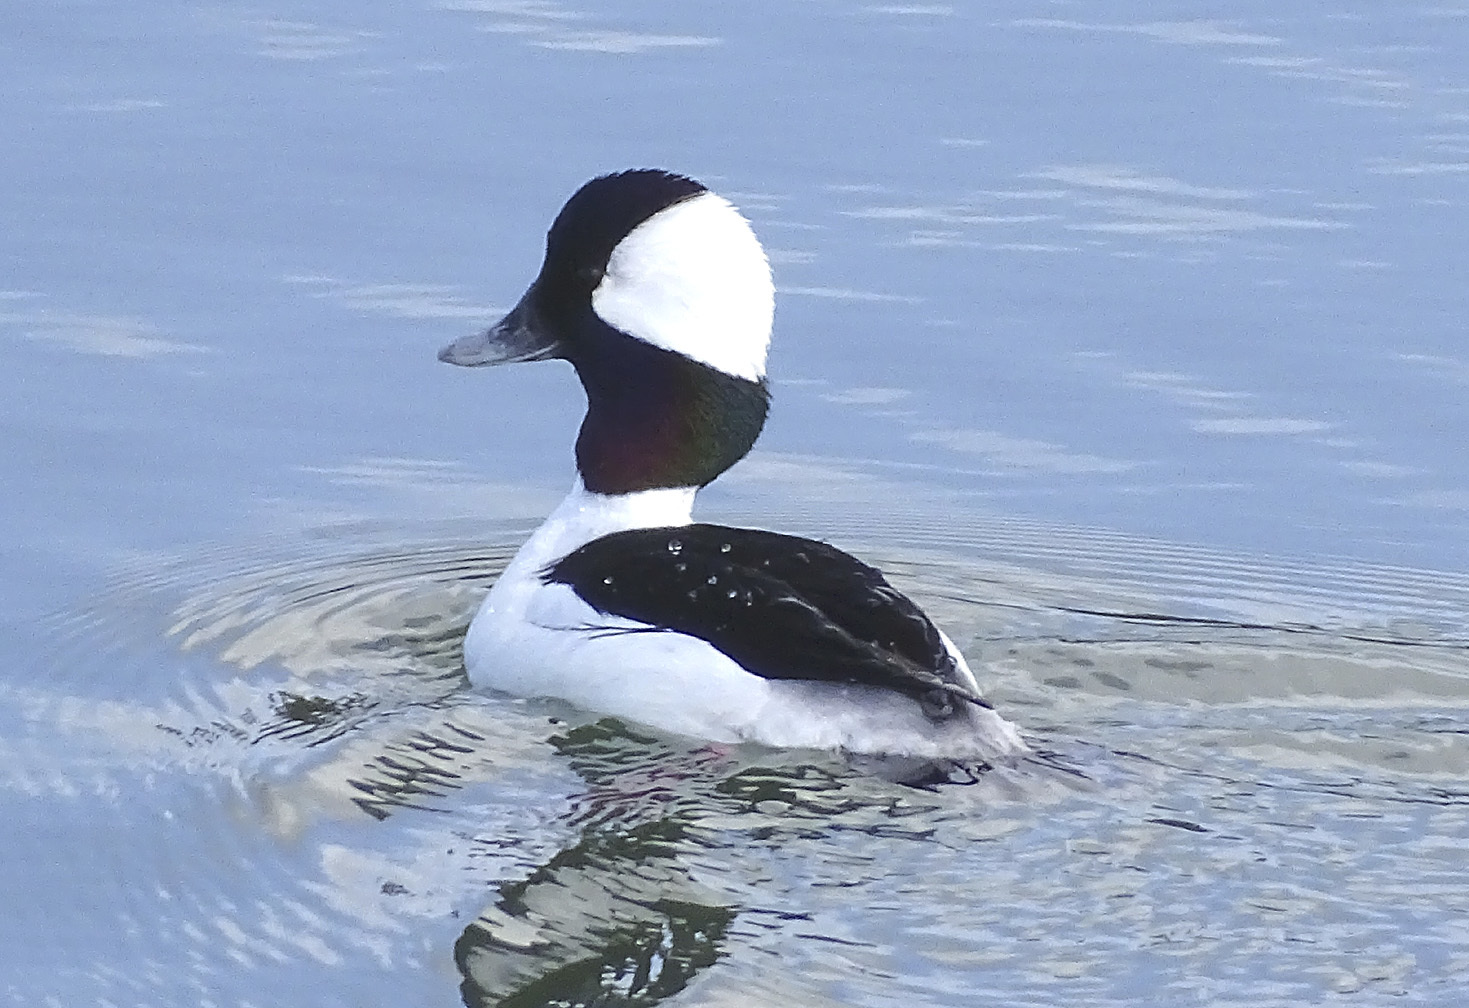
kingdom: Animalia
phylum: Chordata
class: Aves
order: Anseriformes
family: Anatidae
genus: Bucephala
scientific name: Bucephala albeola
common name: Bufflehead
